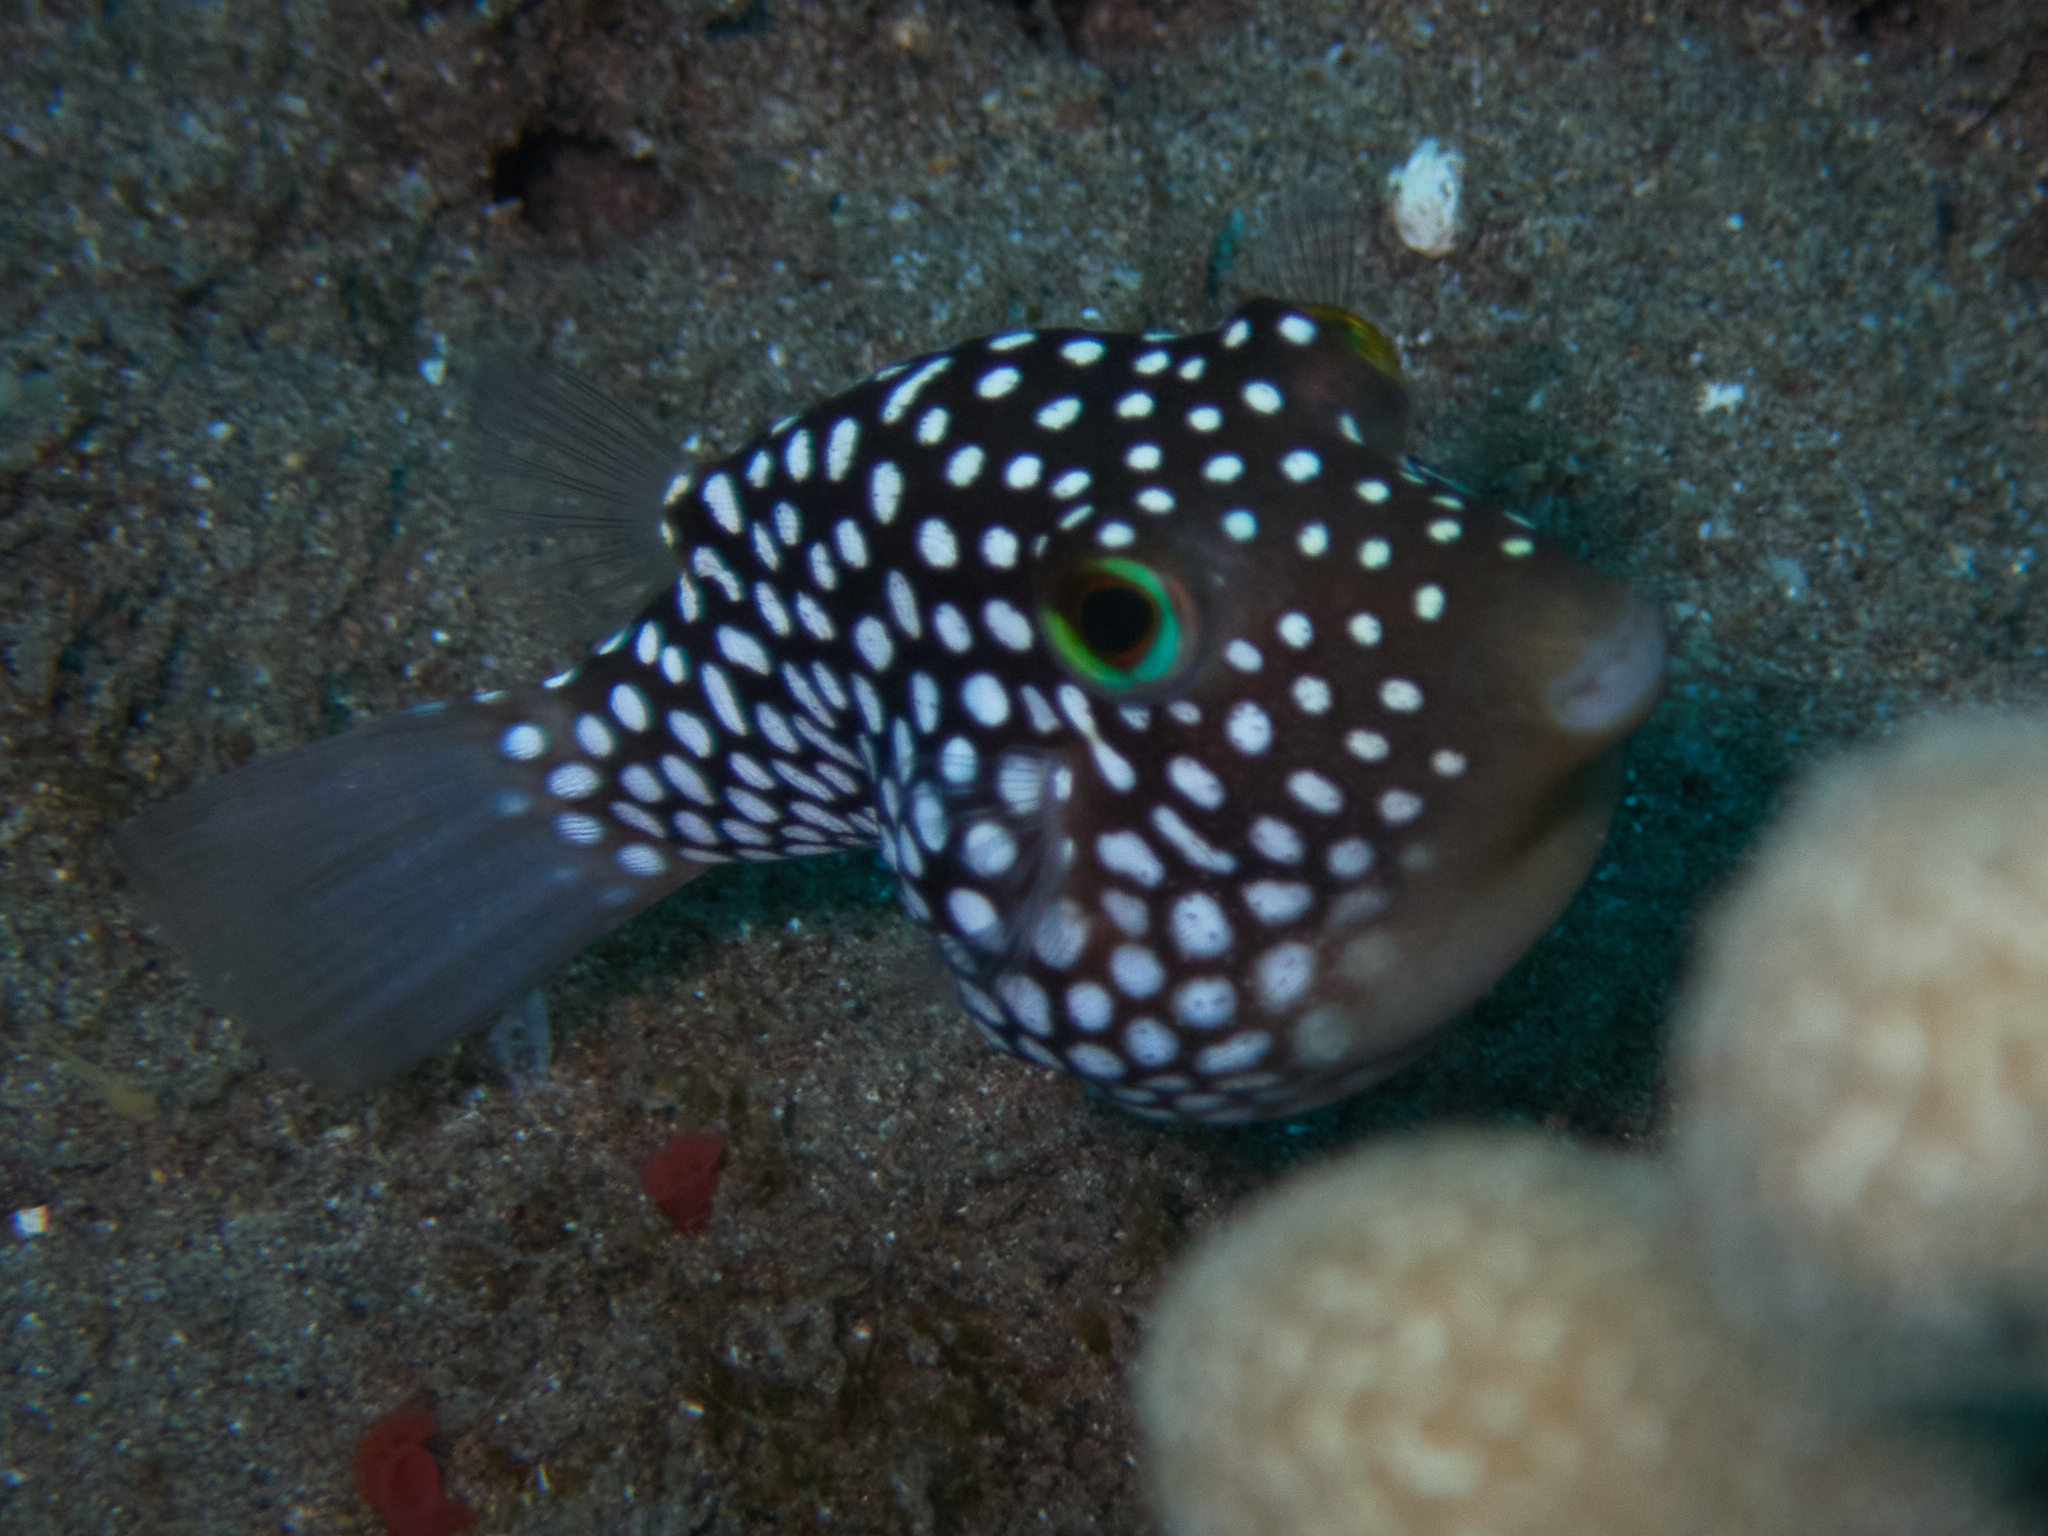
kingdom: Animalia
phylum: Chordata
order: Tetraodontiformes
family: Tetraodontidae
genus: Canthigaster
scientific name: Canthigaster jactator
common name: Hawaiian whitespotted toby
